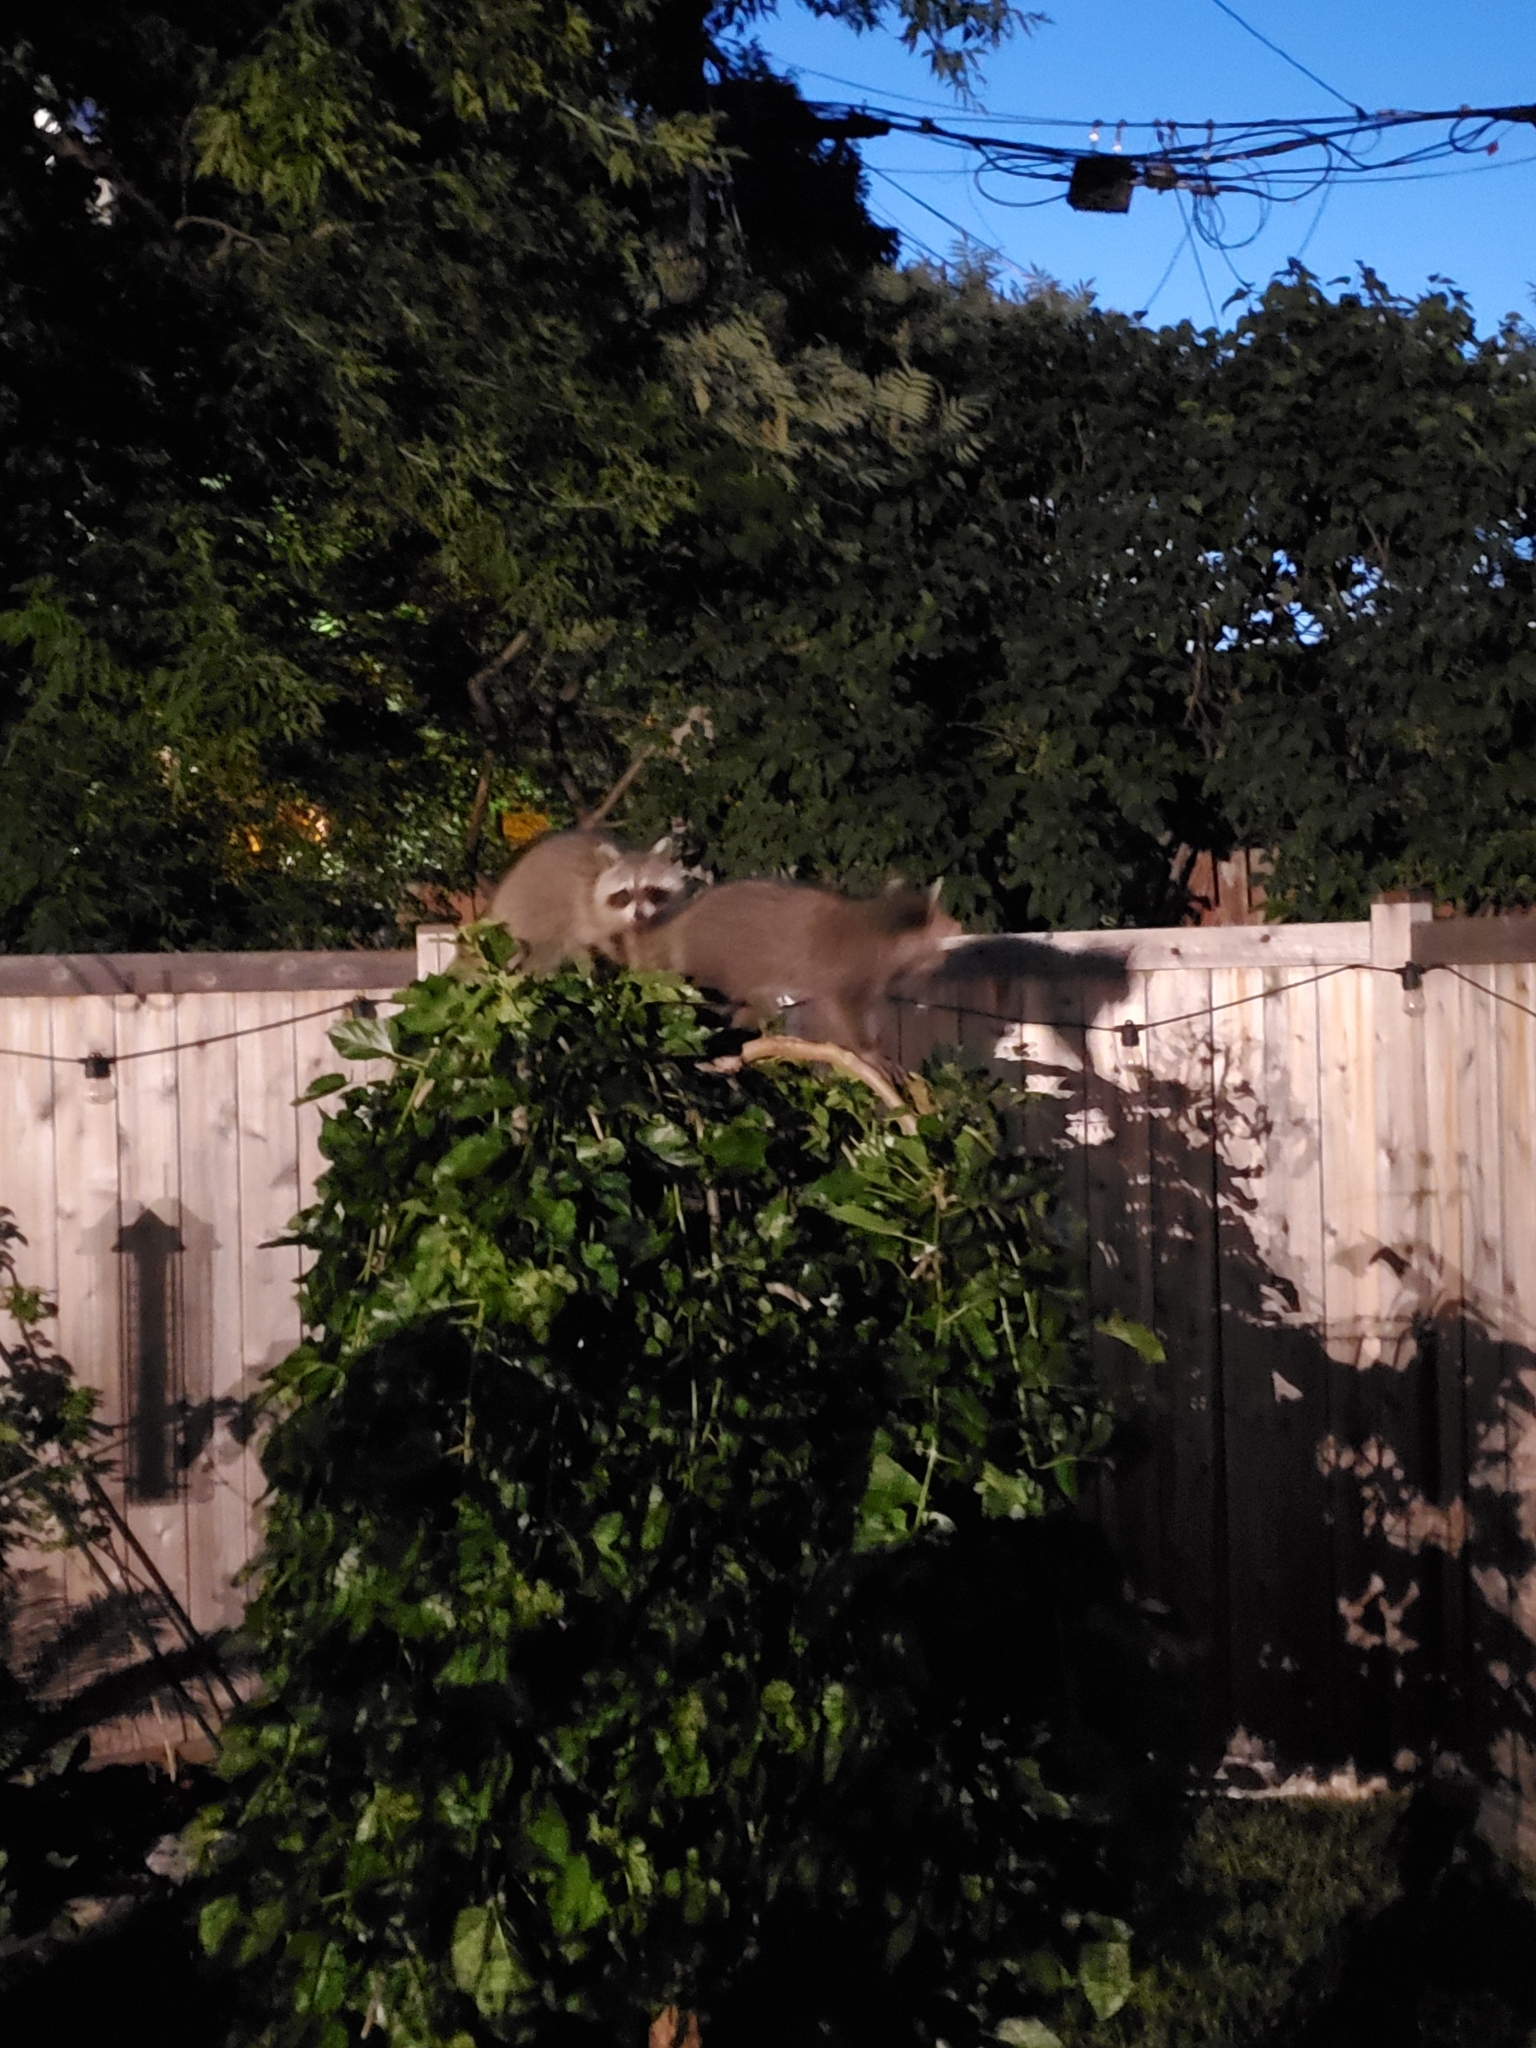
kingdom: Animalia
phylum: Chordata
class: Mammalia
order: Carnivora
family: Procyonidae
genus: Procyon
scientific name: Procyon lotor
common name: Raccoon
